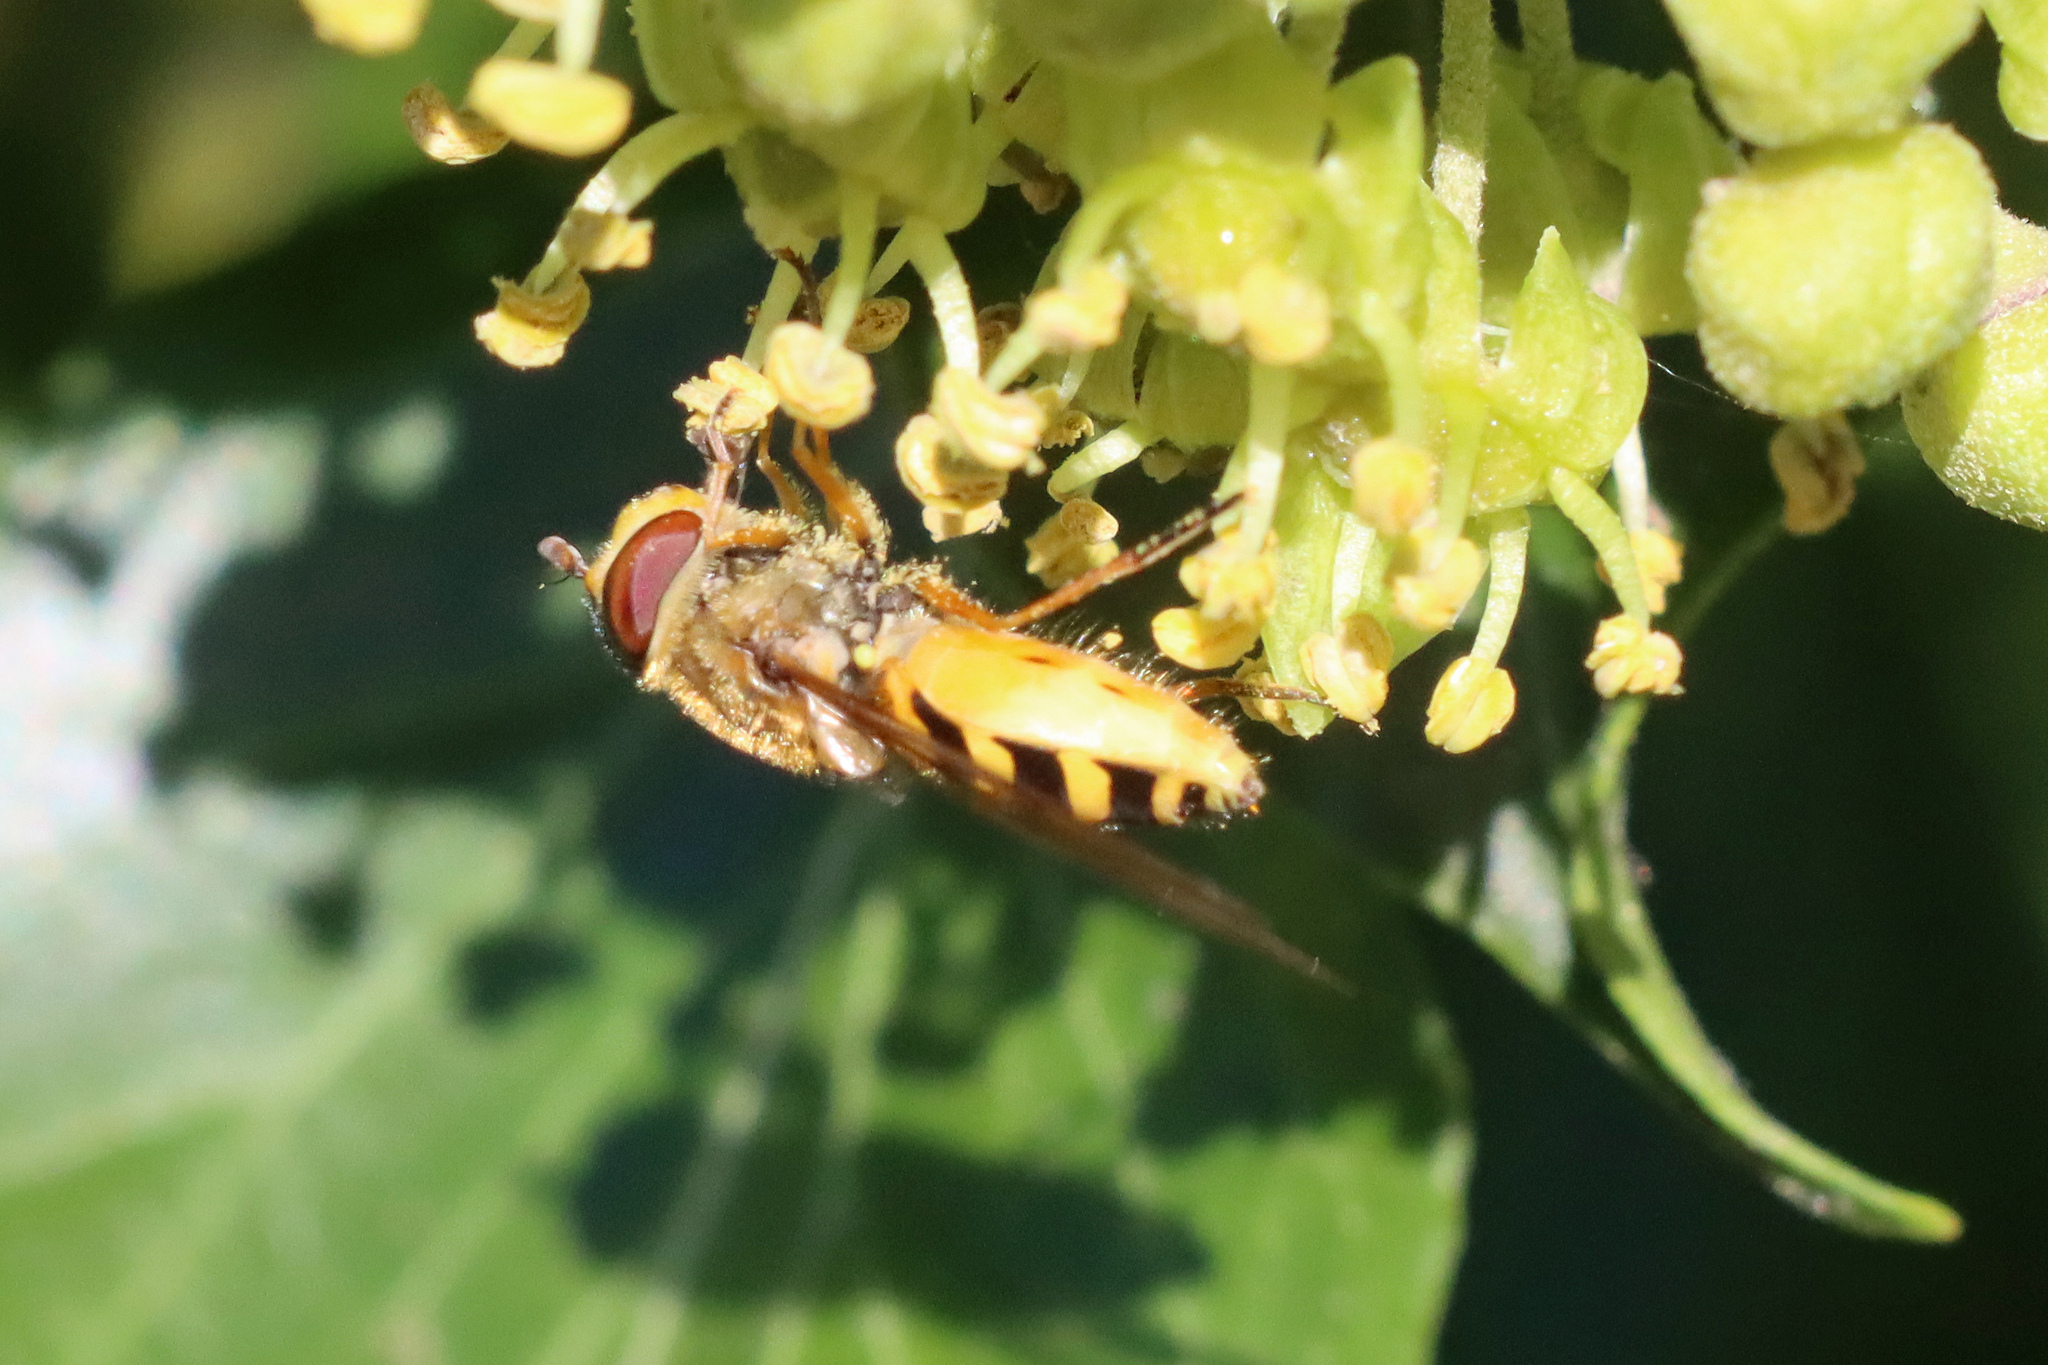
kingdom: Animalia
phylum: Arthropoda
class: Insecta
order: Diptera
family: Syrphidae
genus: Syrphus
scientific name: Syrphus ribesii
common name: Common flower fly
